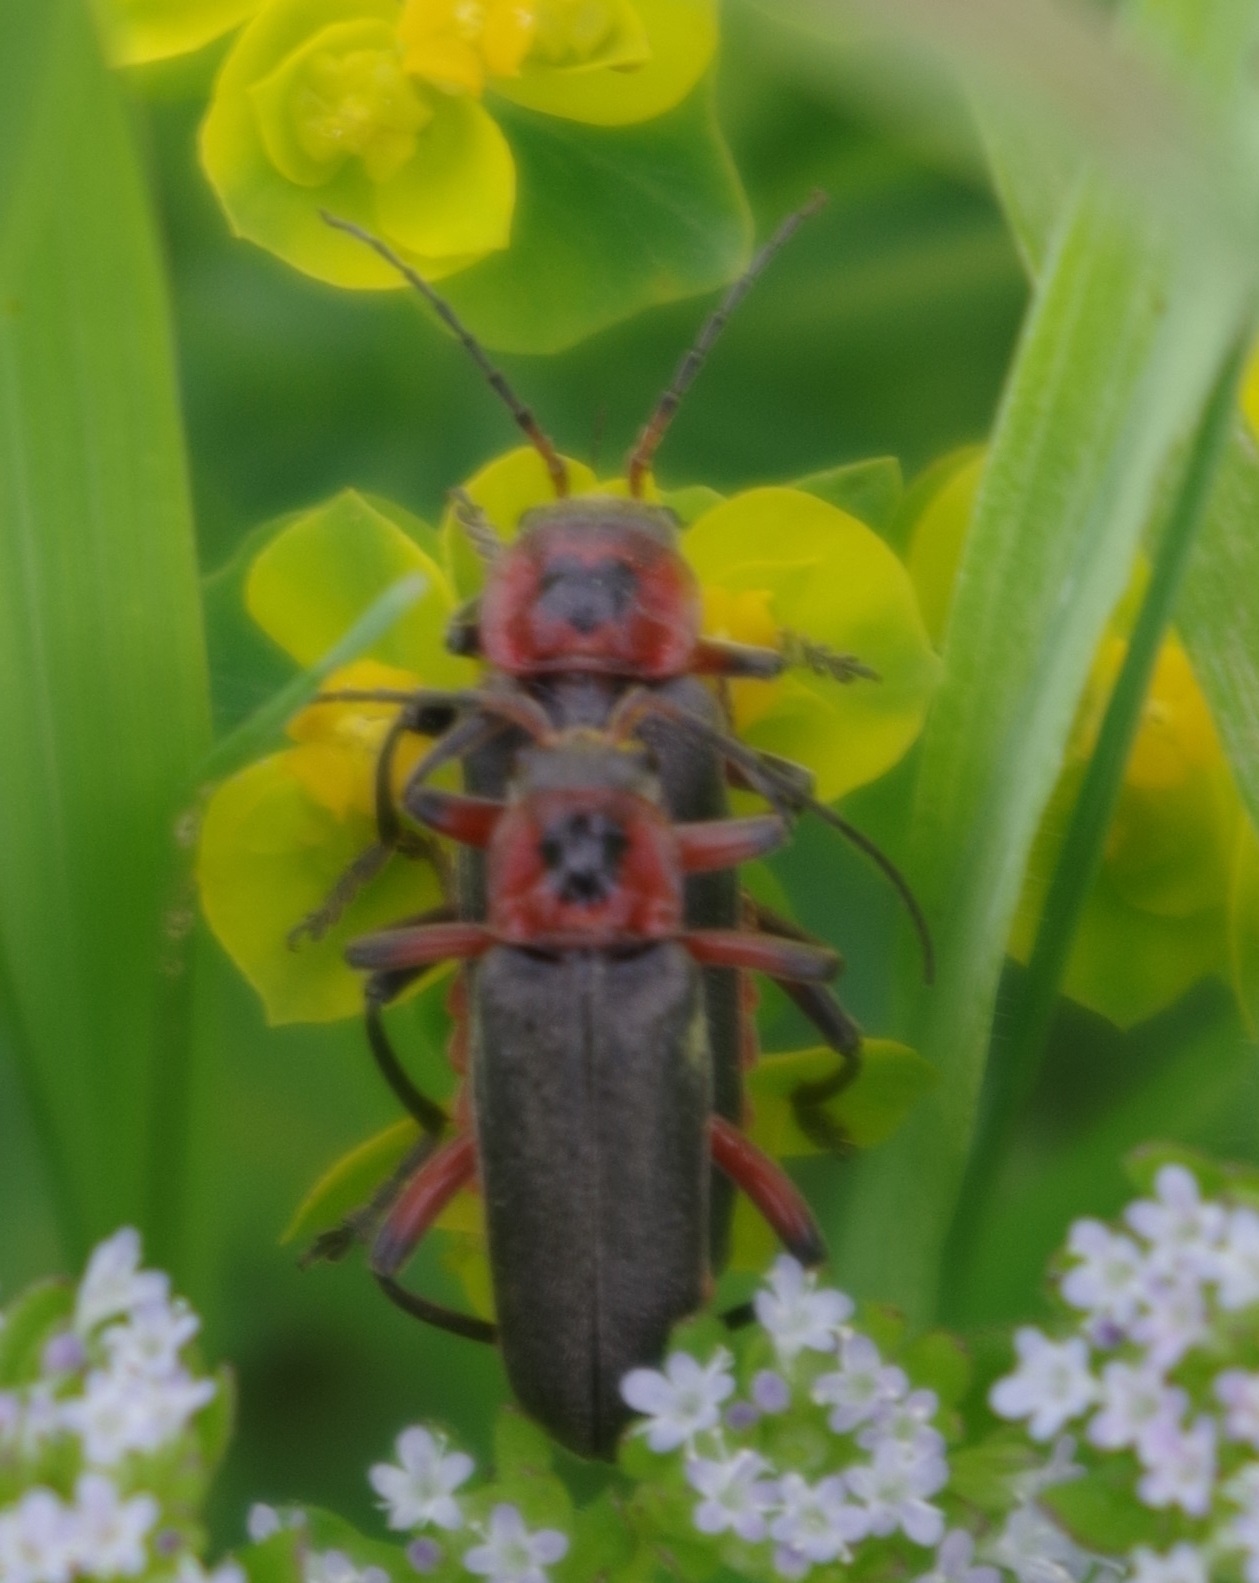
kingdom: Animalia
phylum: Arthropoda
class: Insecta
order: Coleoptera
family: Cantharidae
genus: Cantharis
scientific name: Cantharis rustica
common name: Soldier beetle
